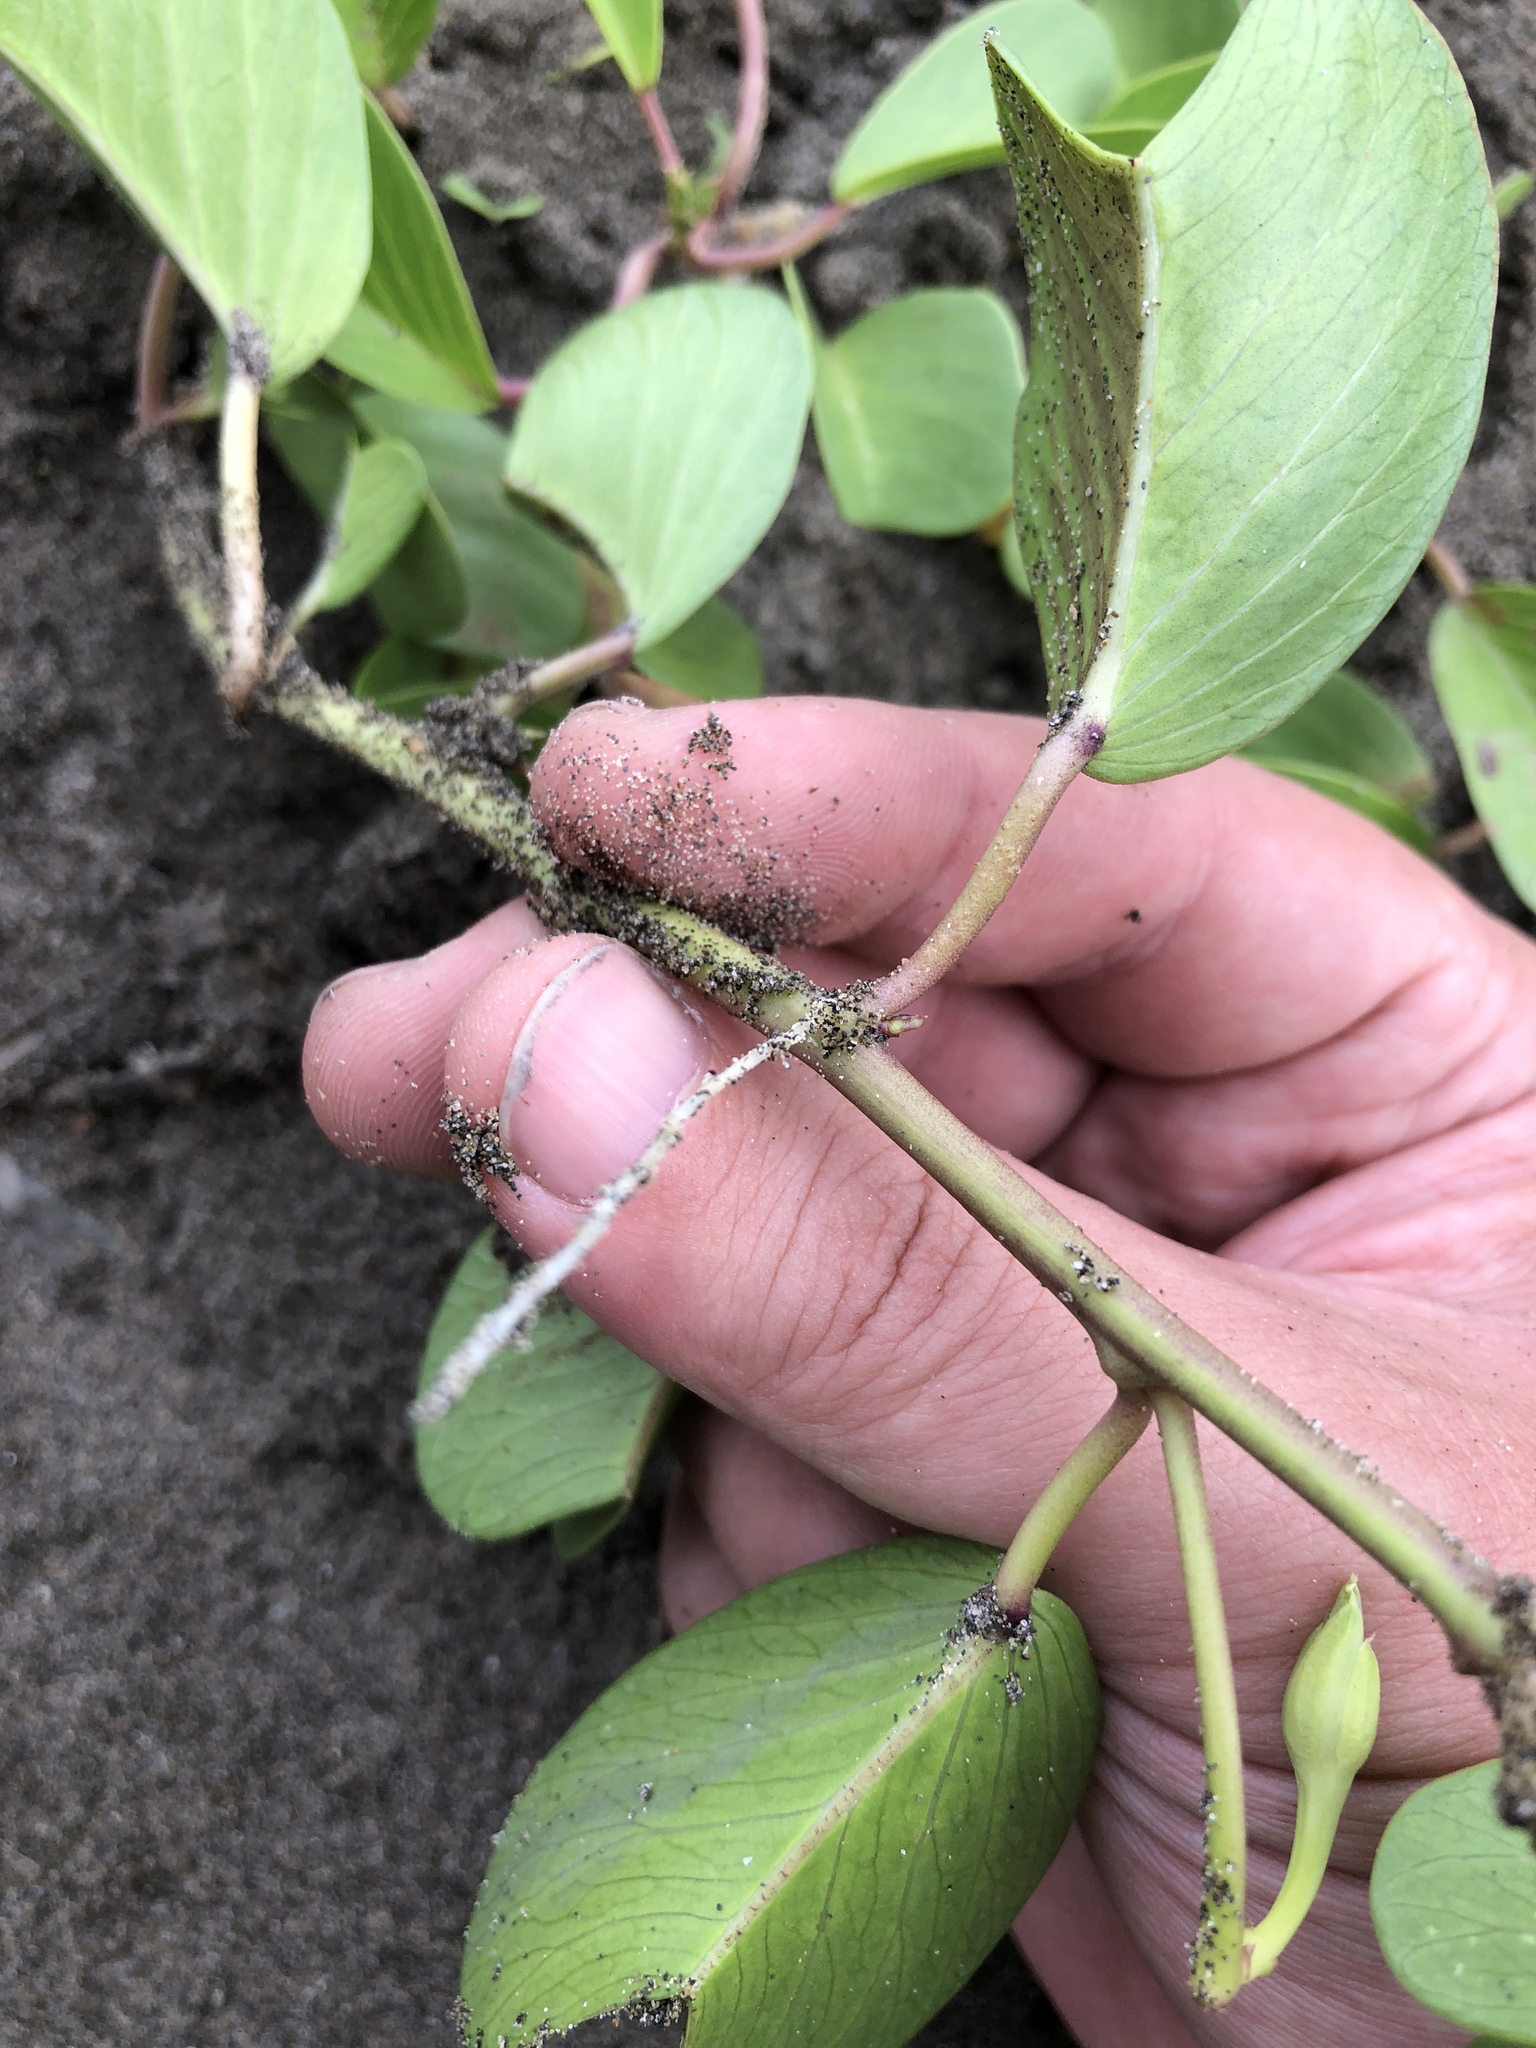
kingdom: Plantae
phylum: Tracheophyta
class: Magnoliopsida
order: Solanales
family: Convolvulaceae
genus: Ipomoea
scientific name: Ipomoea pes-caprae
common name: Beach morning glory
